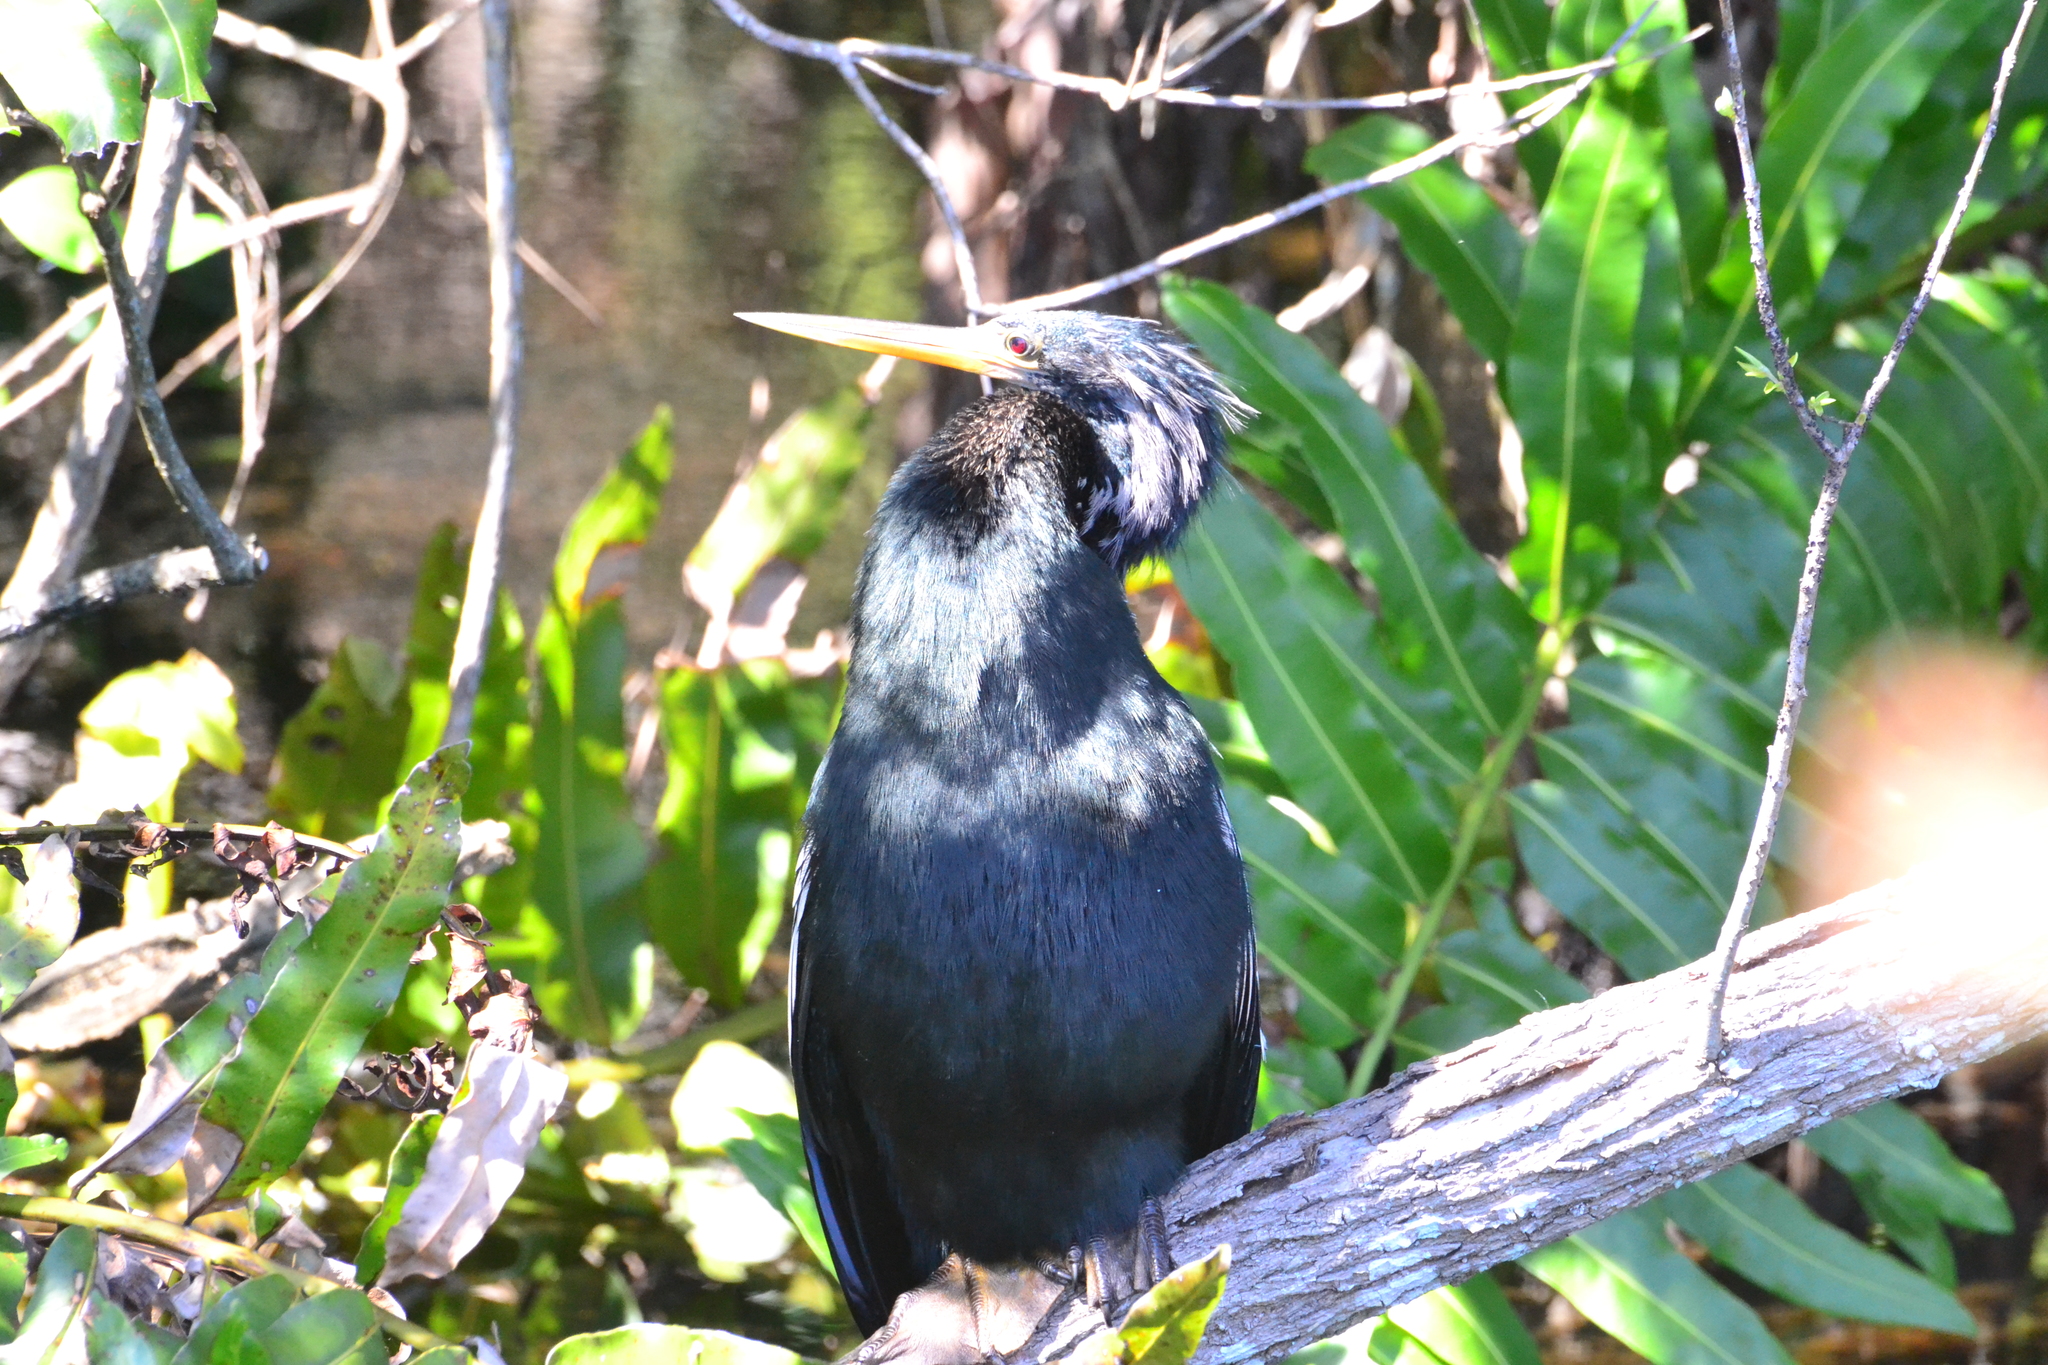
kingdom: Animalia
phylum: Chordata
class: Aves
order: Suliformes
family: Anhingidae
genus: Anhinga
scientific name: Anhinga anhinga
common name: Anhinga
